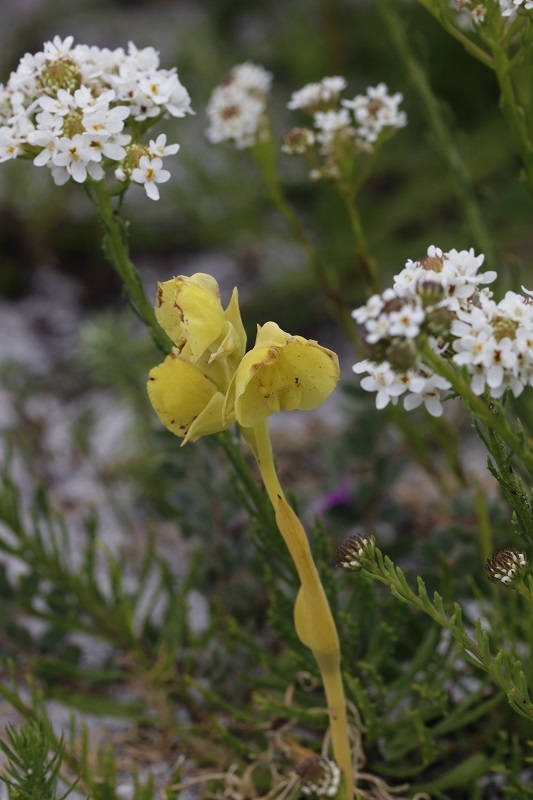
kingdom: Plantae
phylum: Tracheophyta
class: Liliopsida
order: Asparagales
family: Orchidaceae
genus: Pterygodium
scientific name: Pterygodium catholicum
